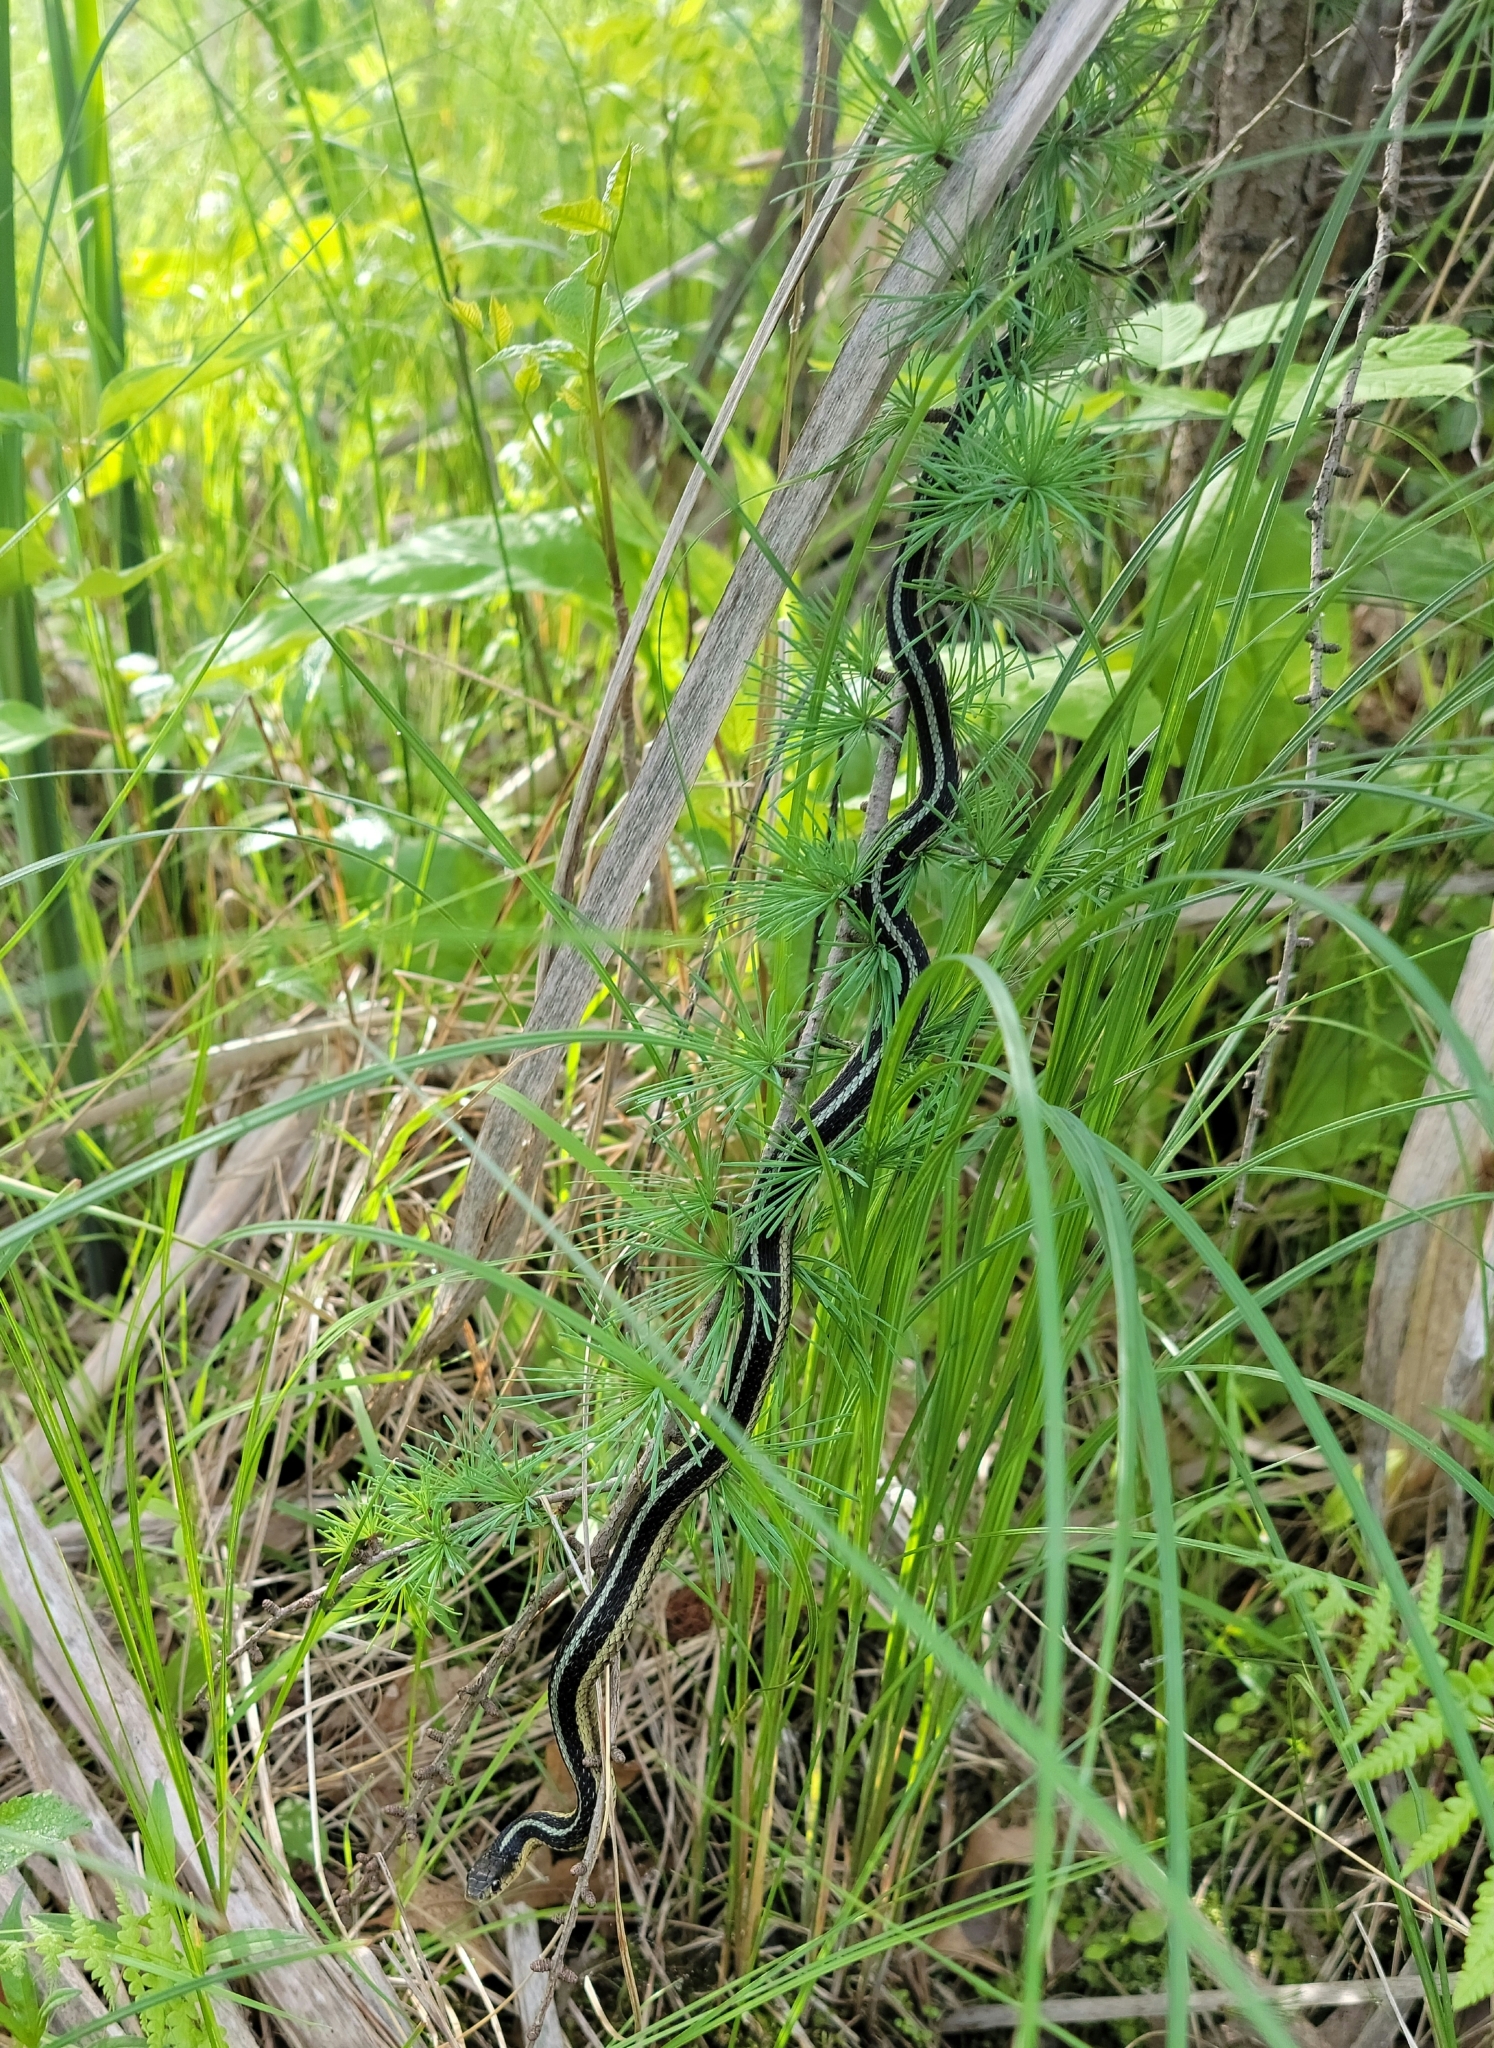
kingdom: Animalia
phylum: Chordata
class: Squamata
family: Colubridae
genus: Thamnophis
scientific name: Thamnophis sirtalis
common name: Common garter snake
